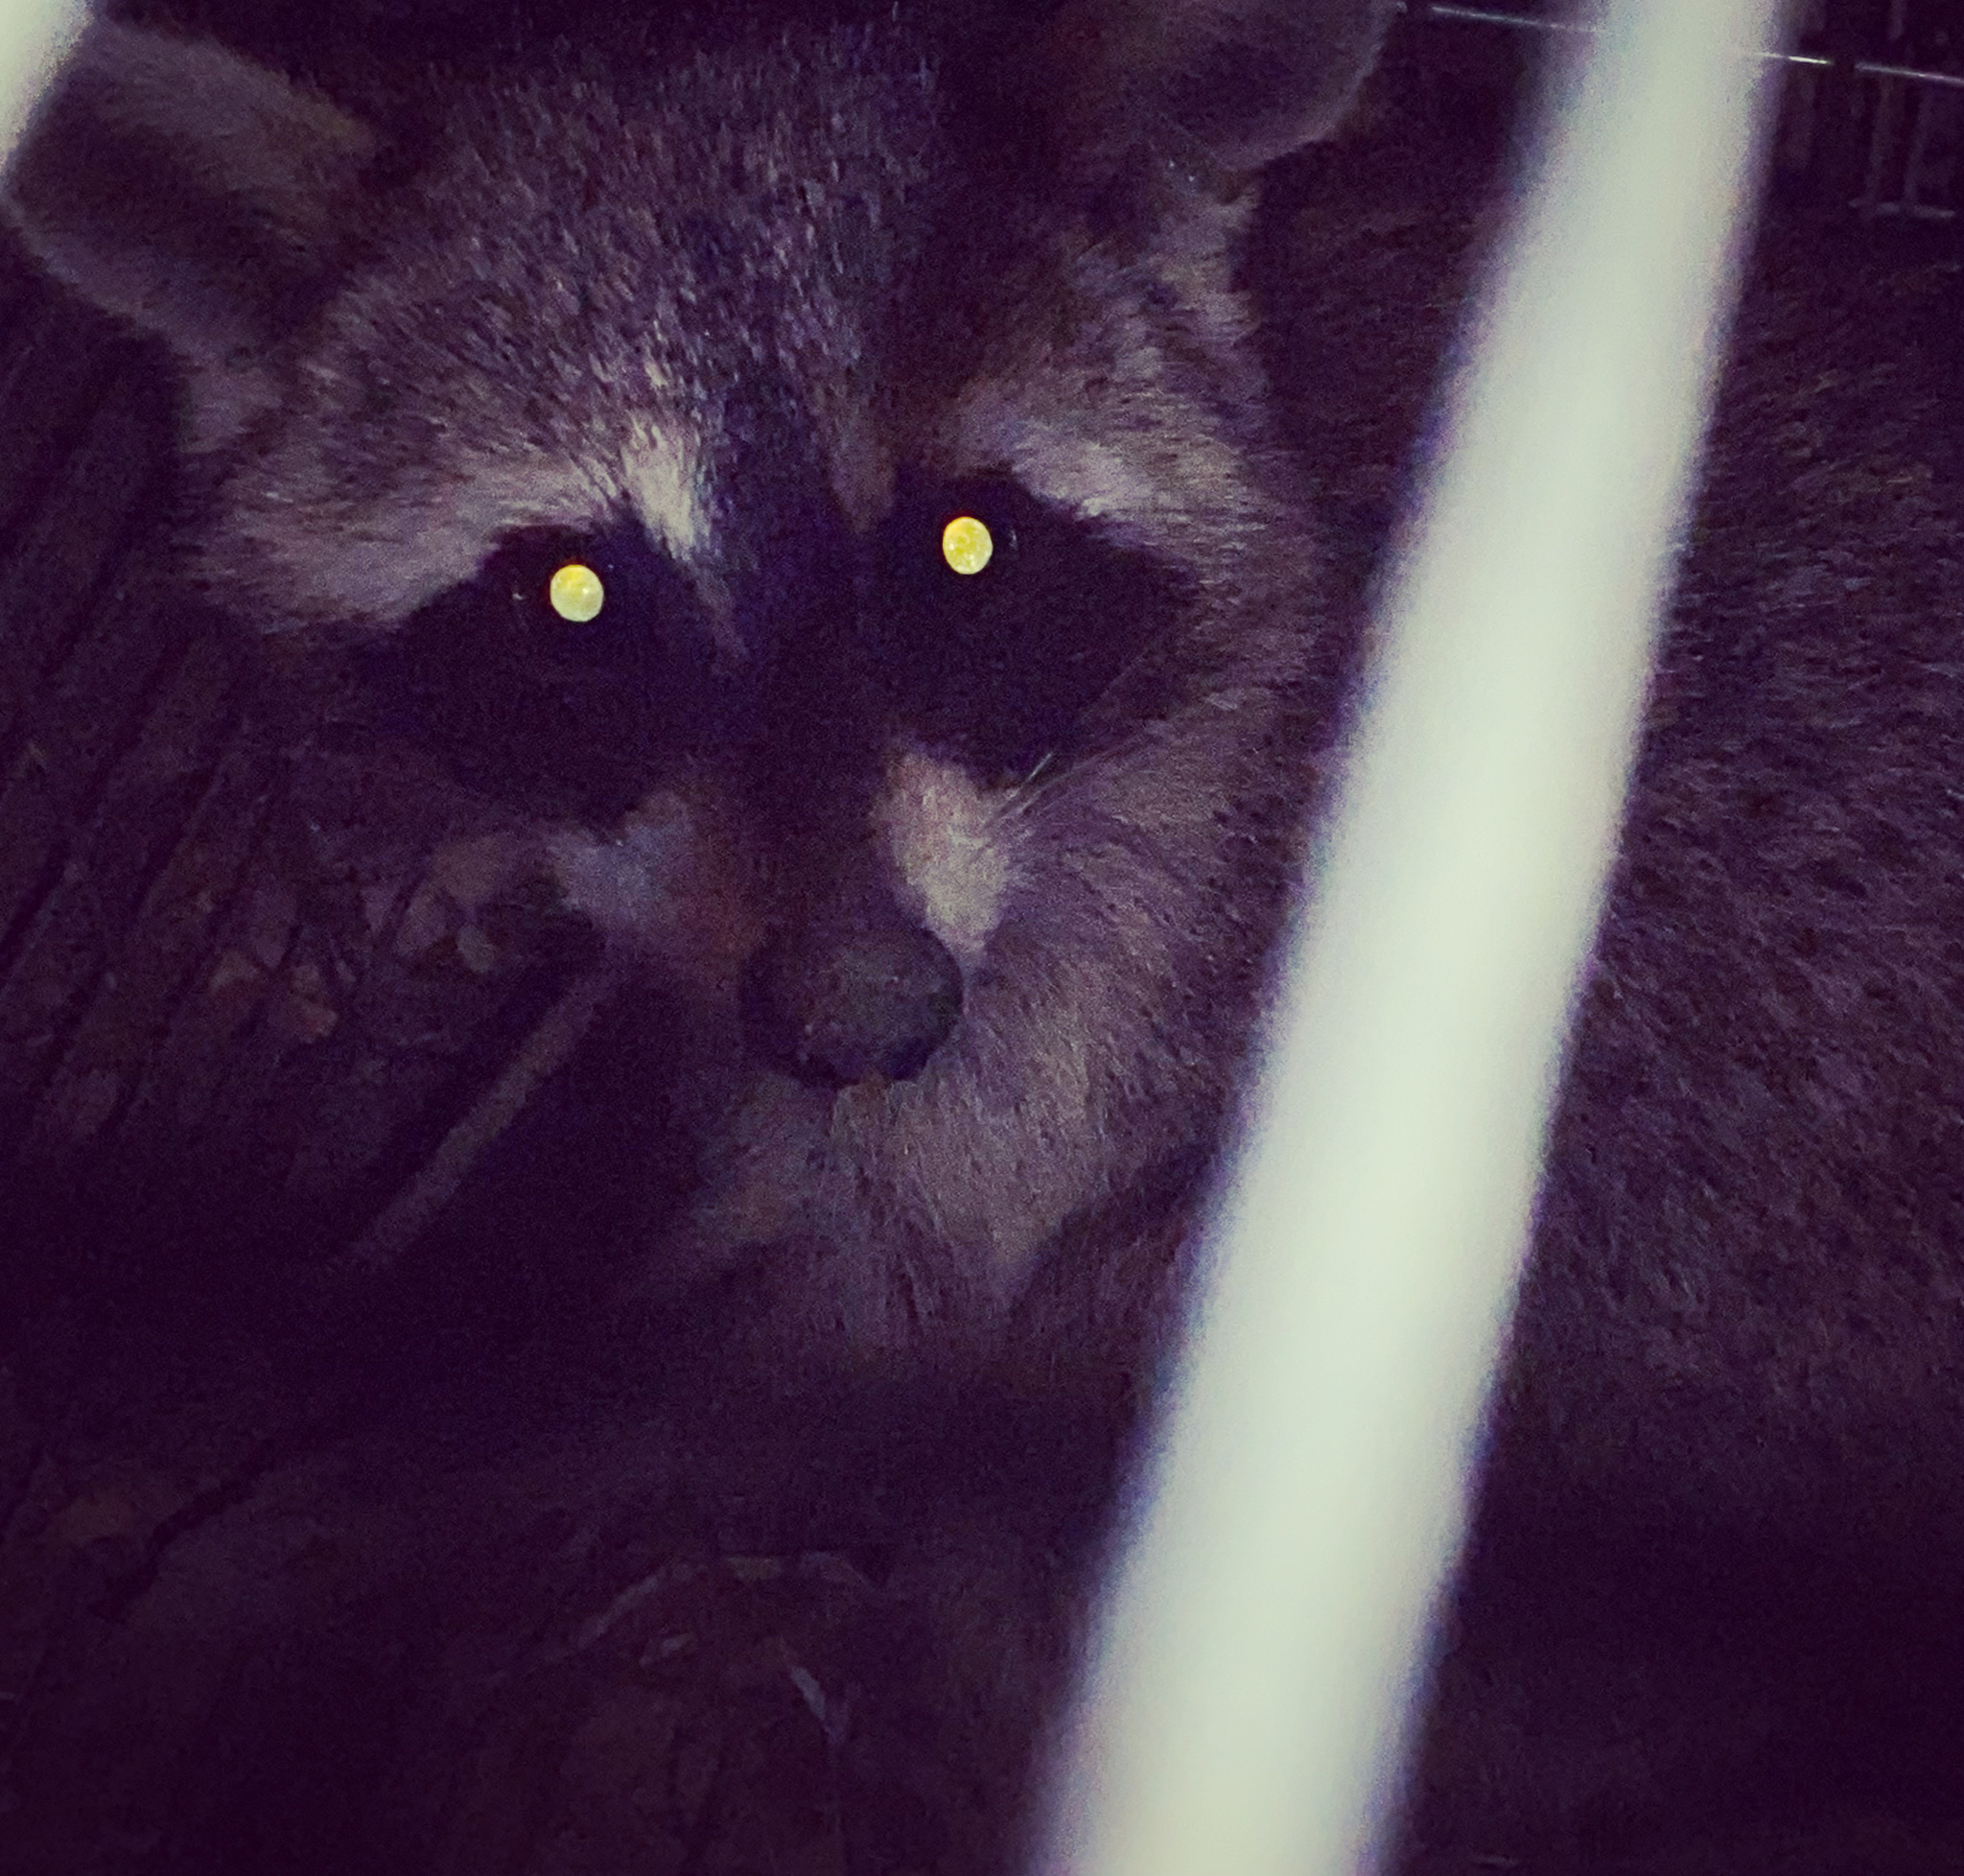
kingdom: Animalia
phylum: Chordata
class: Mammalia
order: Carnivora
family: Procyonidae
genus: Procyon
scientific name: Procyon lotor
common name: Raccoon
